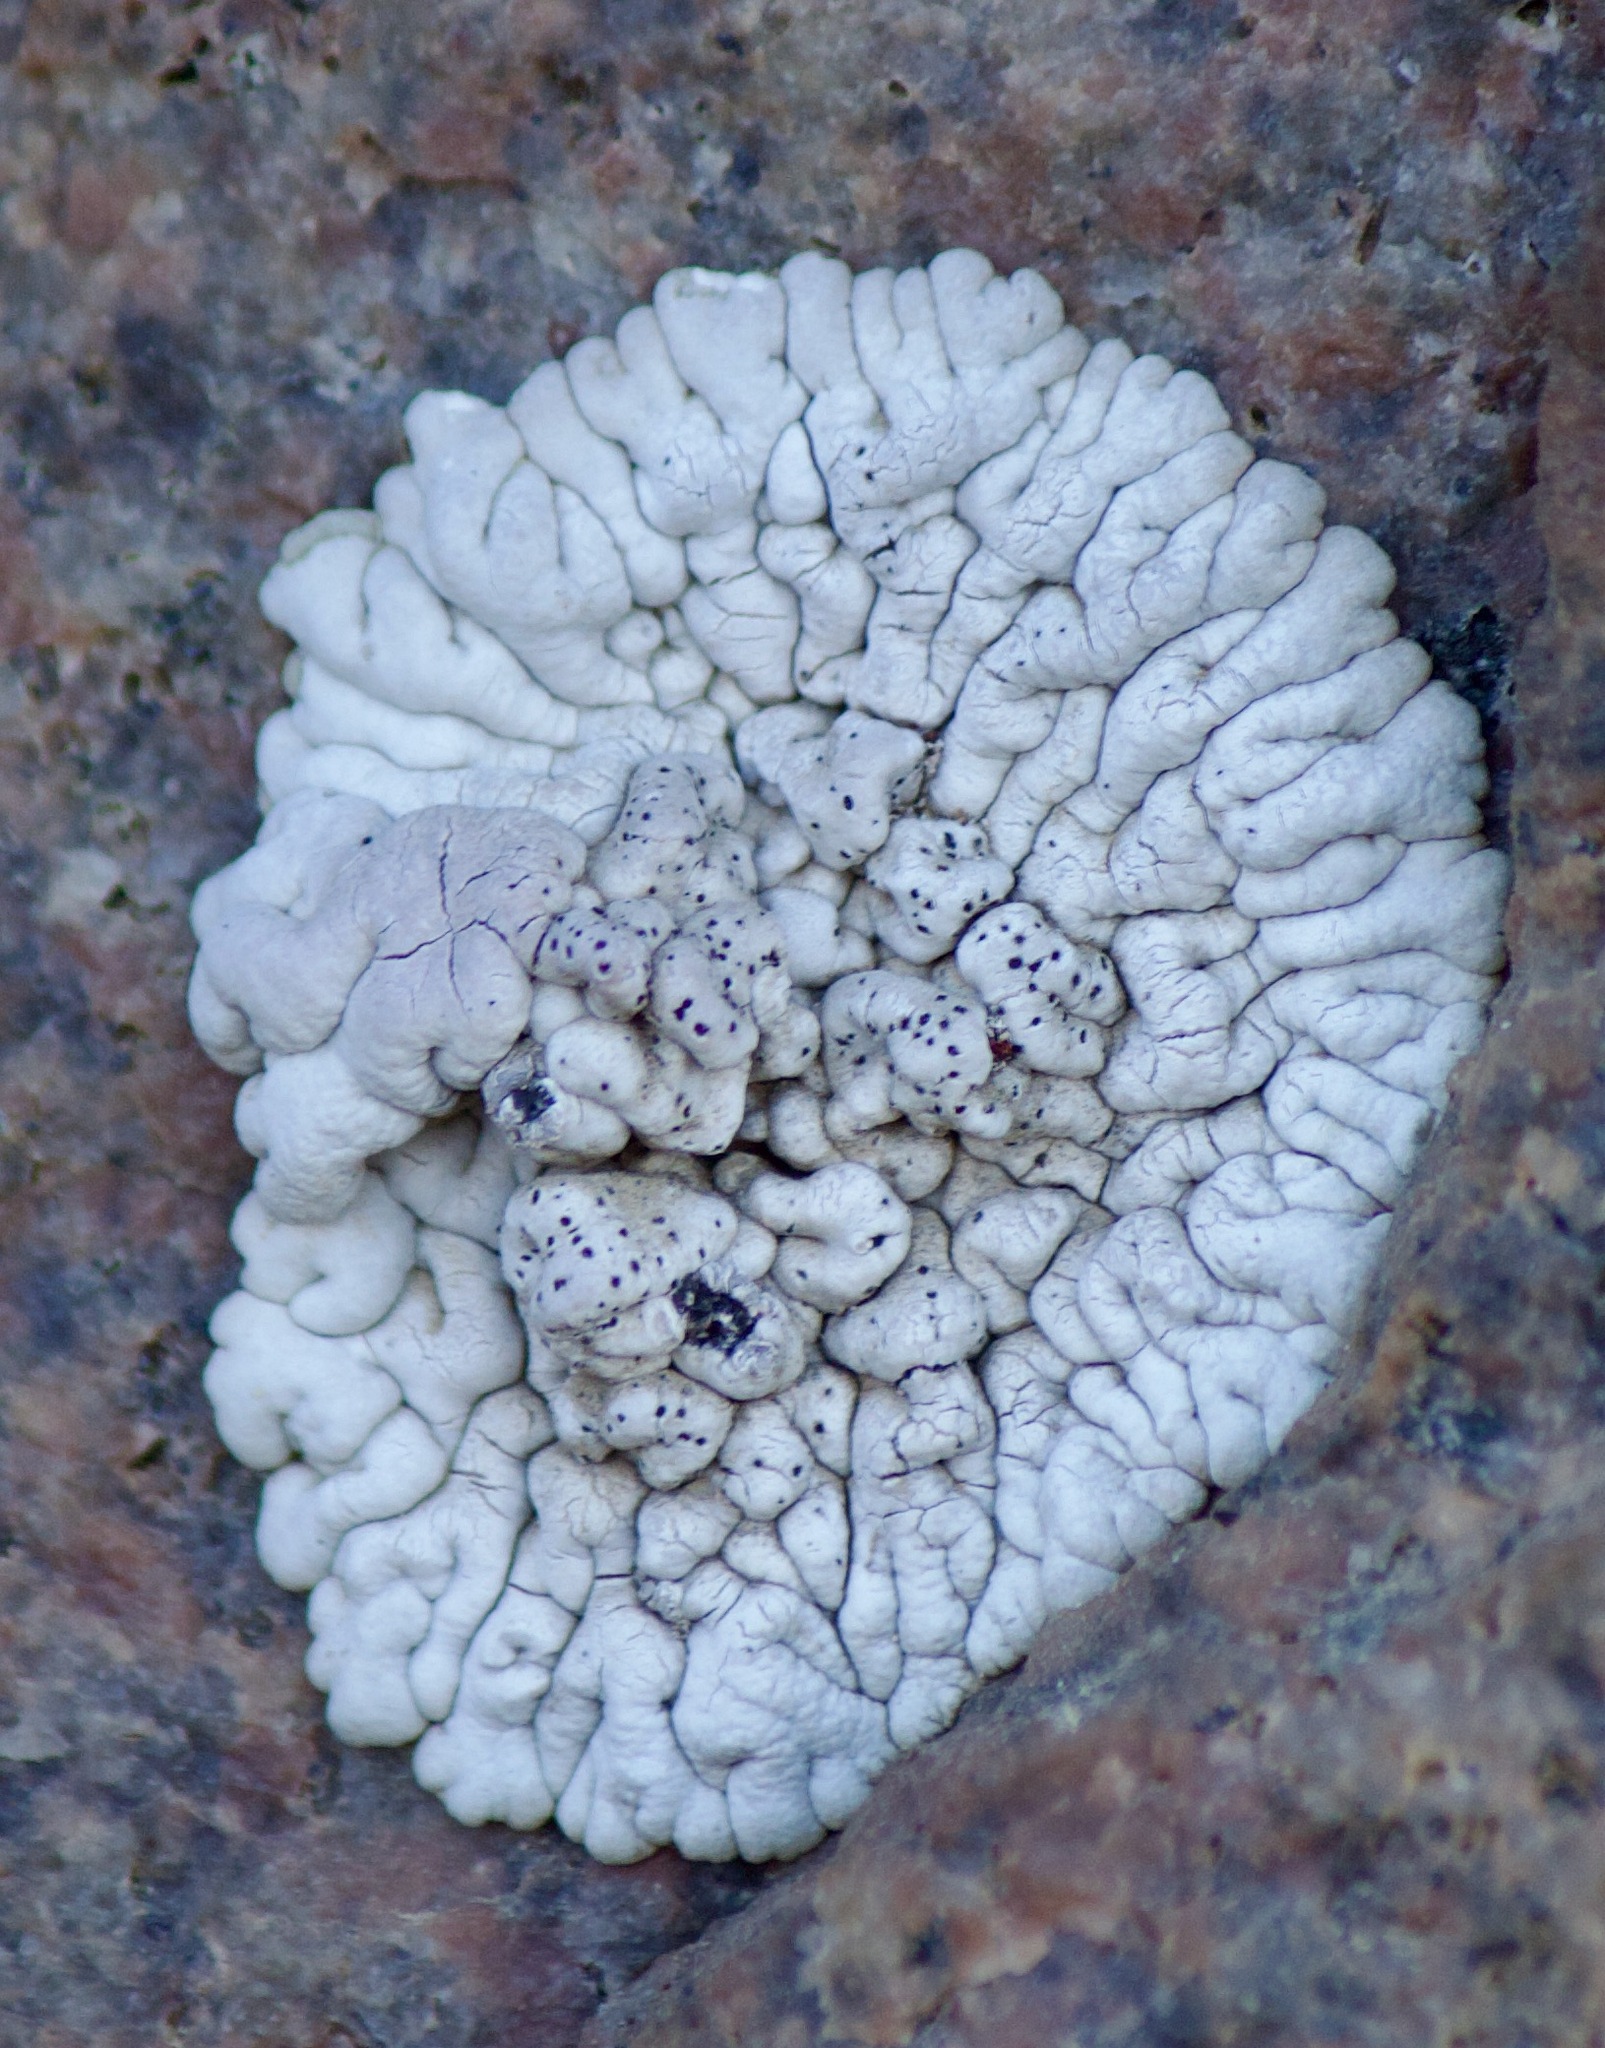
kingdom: Fungi
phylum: Ascomycota
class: Lecanoromycetes
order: Caliciales
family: Caliciaceae
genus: Diploicia
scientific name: Diploicia canescens
